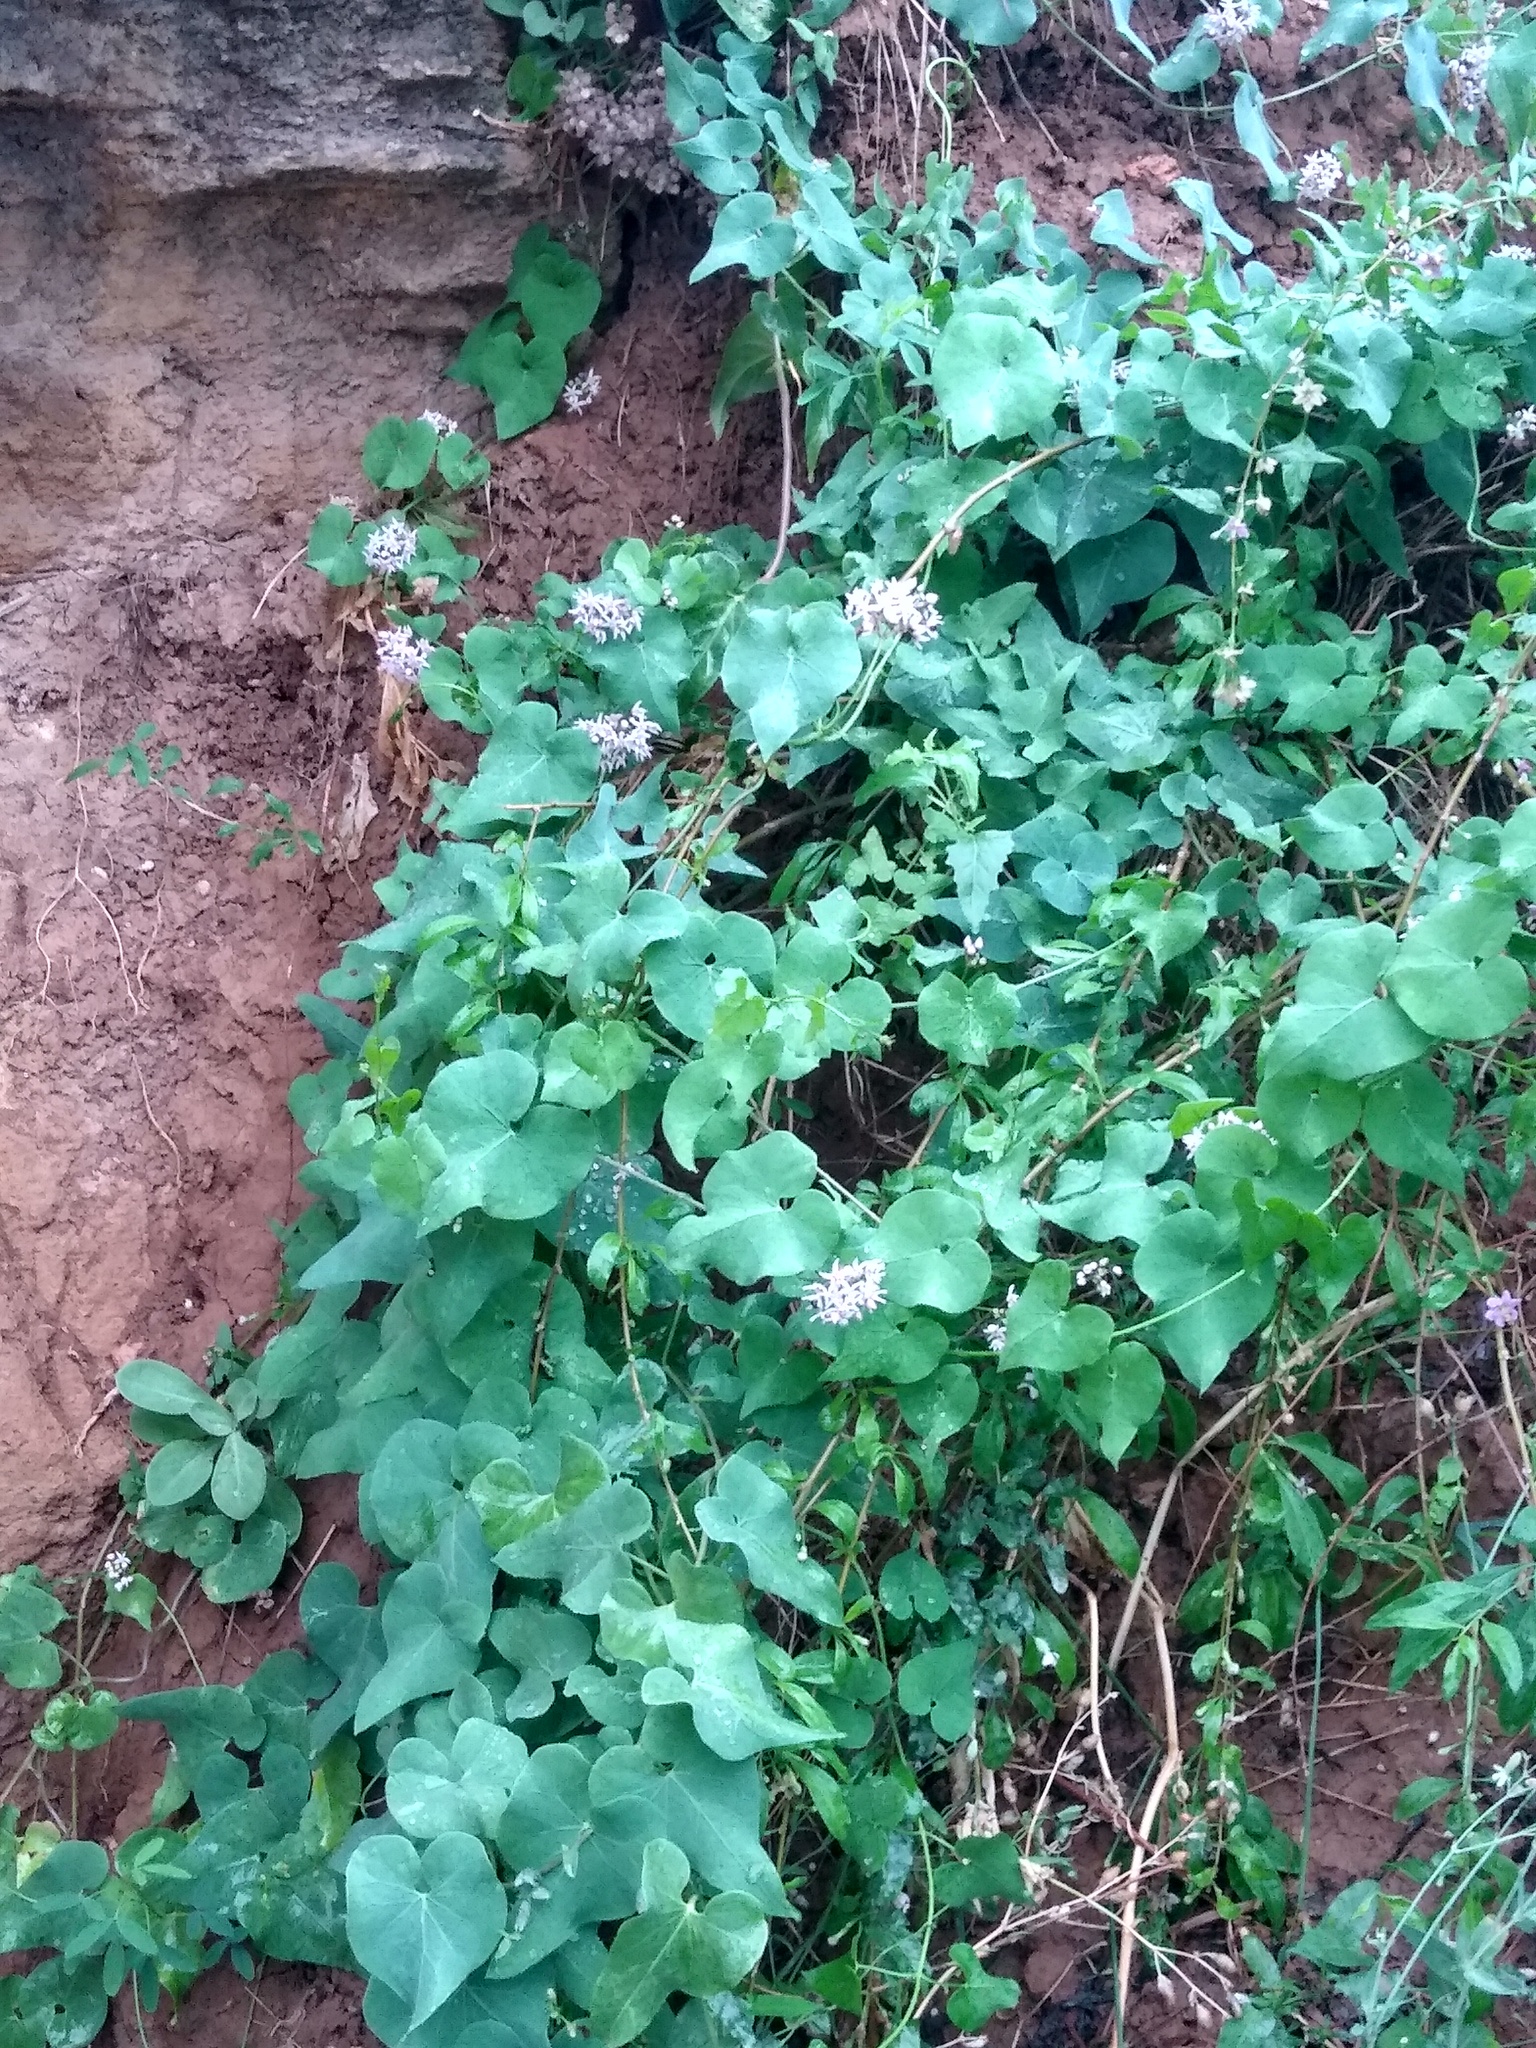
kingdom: Plantae
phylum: Tracheophyta
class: Magnoliopsida
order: Gentianales
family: Apocynaceae
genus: Cynanchum
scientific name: Cynanchum acutum
